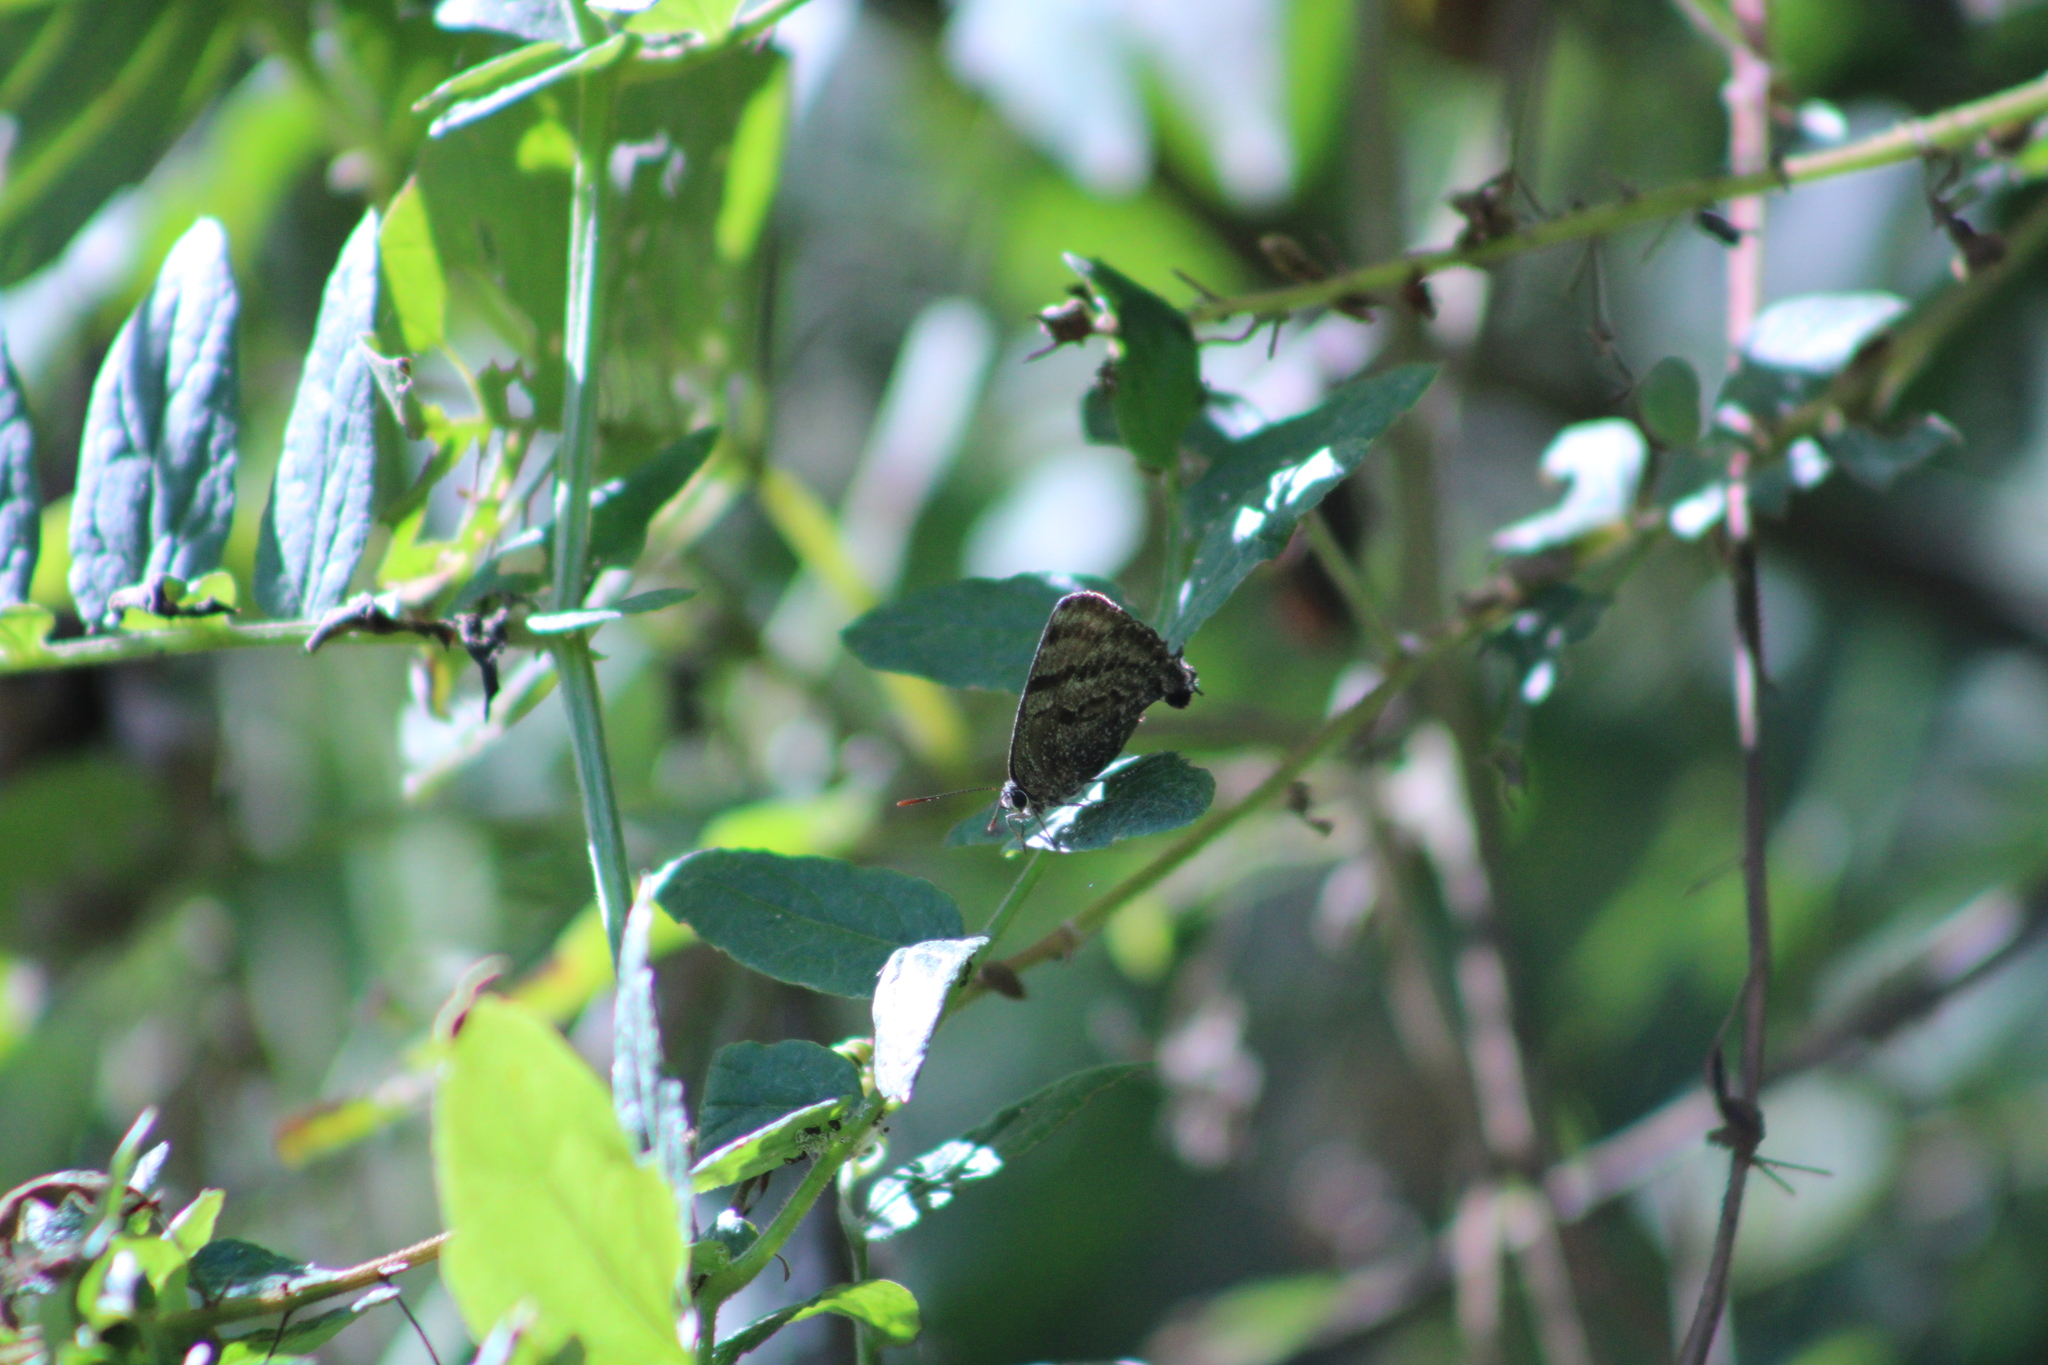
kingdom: Animalia
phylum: Arthropoda
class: Insecta
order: Lepidoptera
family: Lycaenidae
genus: Atlides
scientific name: Atlides
